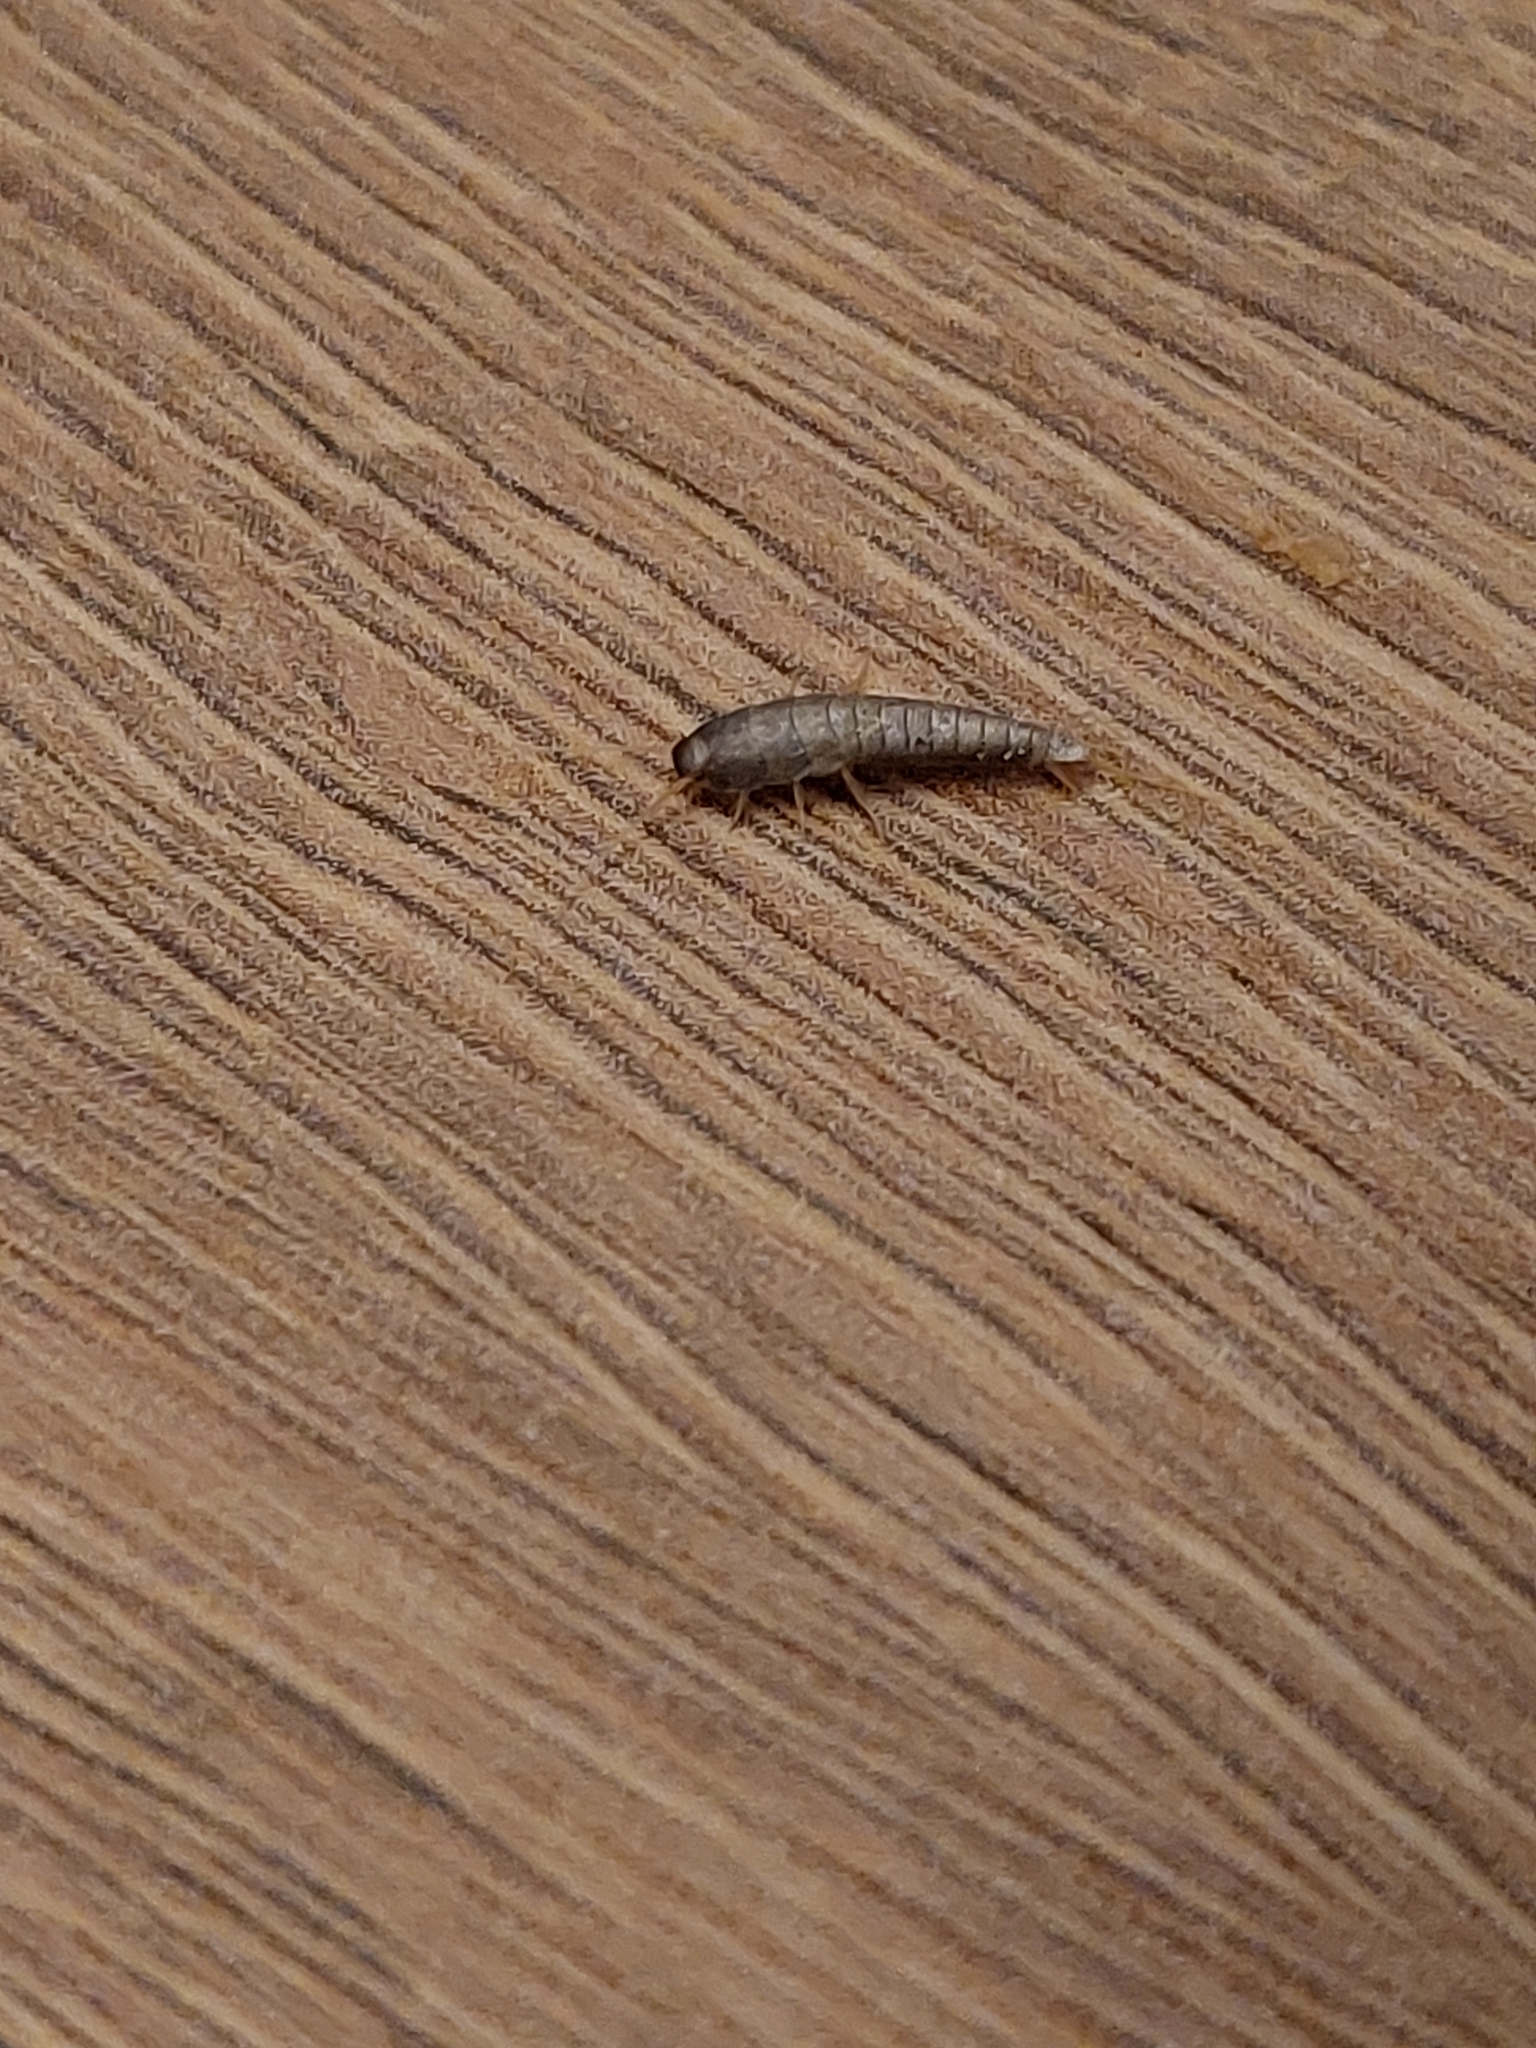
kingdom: Animalia
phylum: Arthropoda
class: Insecta
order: Zygentoma
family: Lepismatidae
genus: Lepisma
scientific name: Lepisma saccharinum
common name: Silverfish
